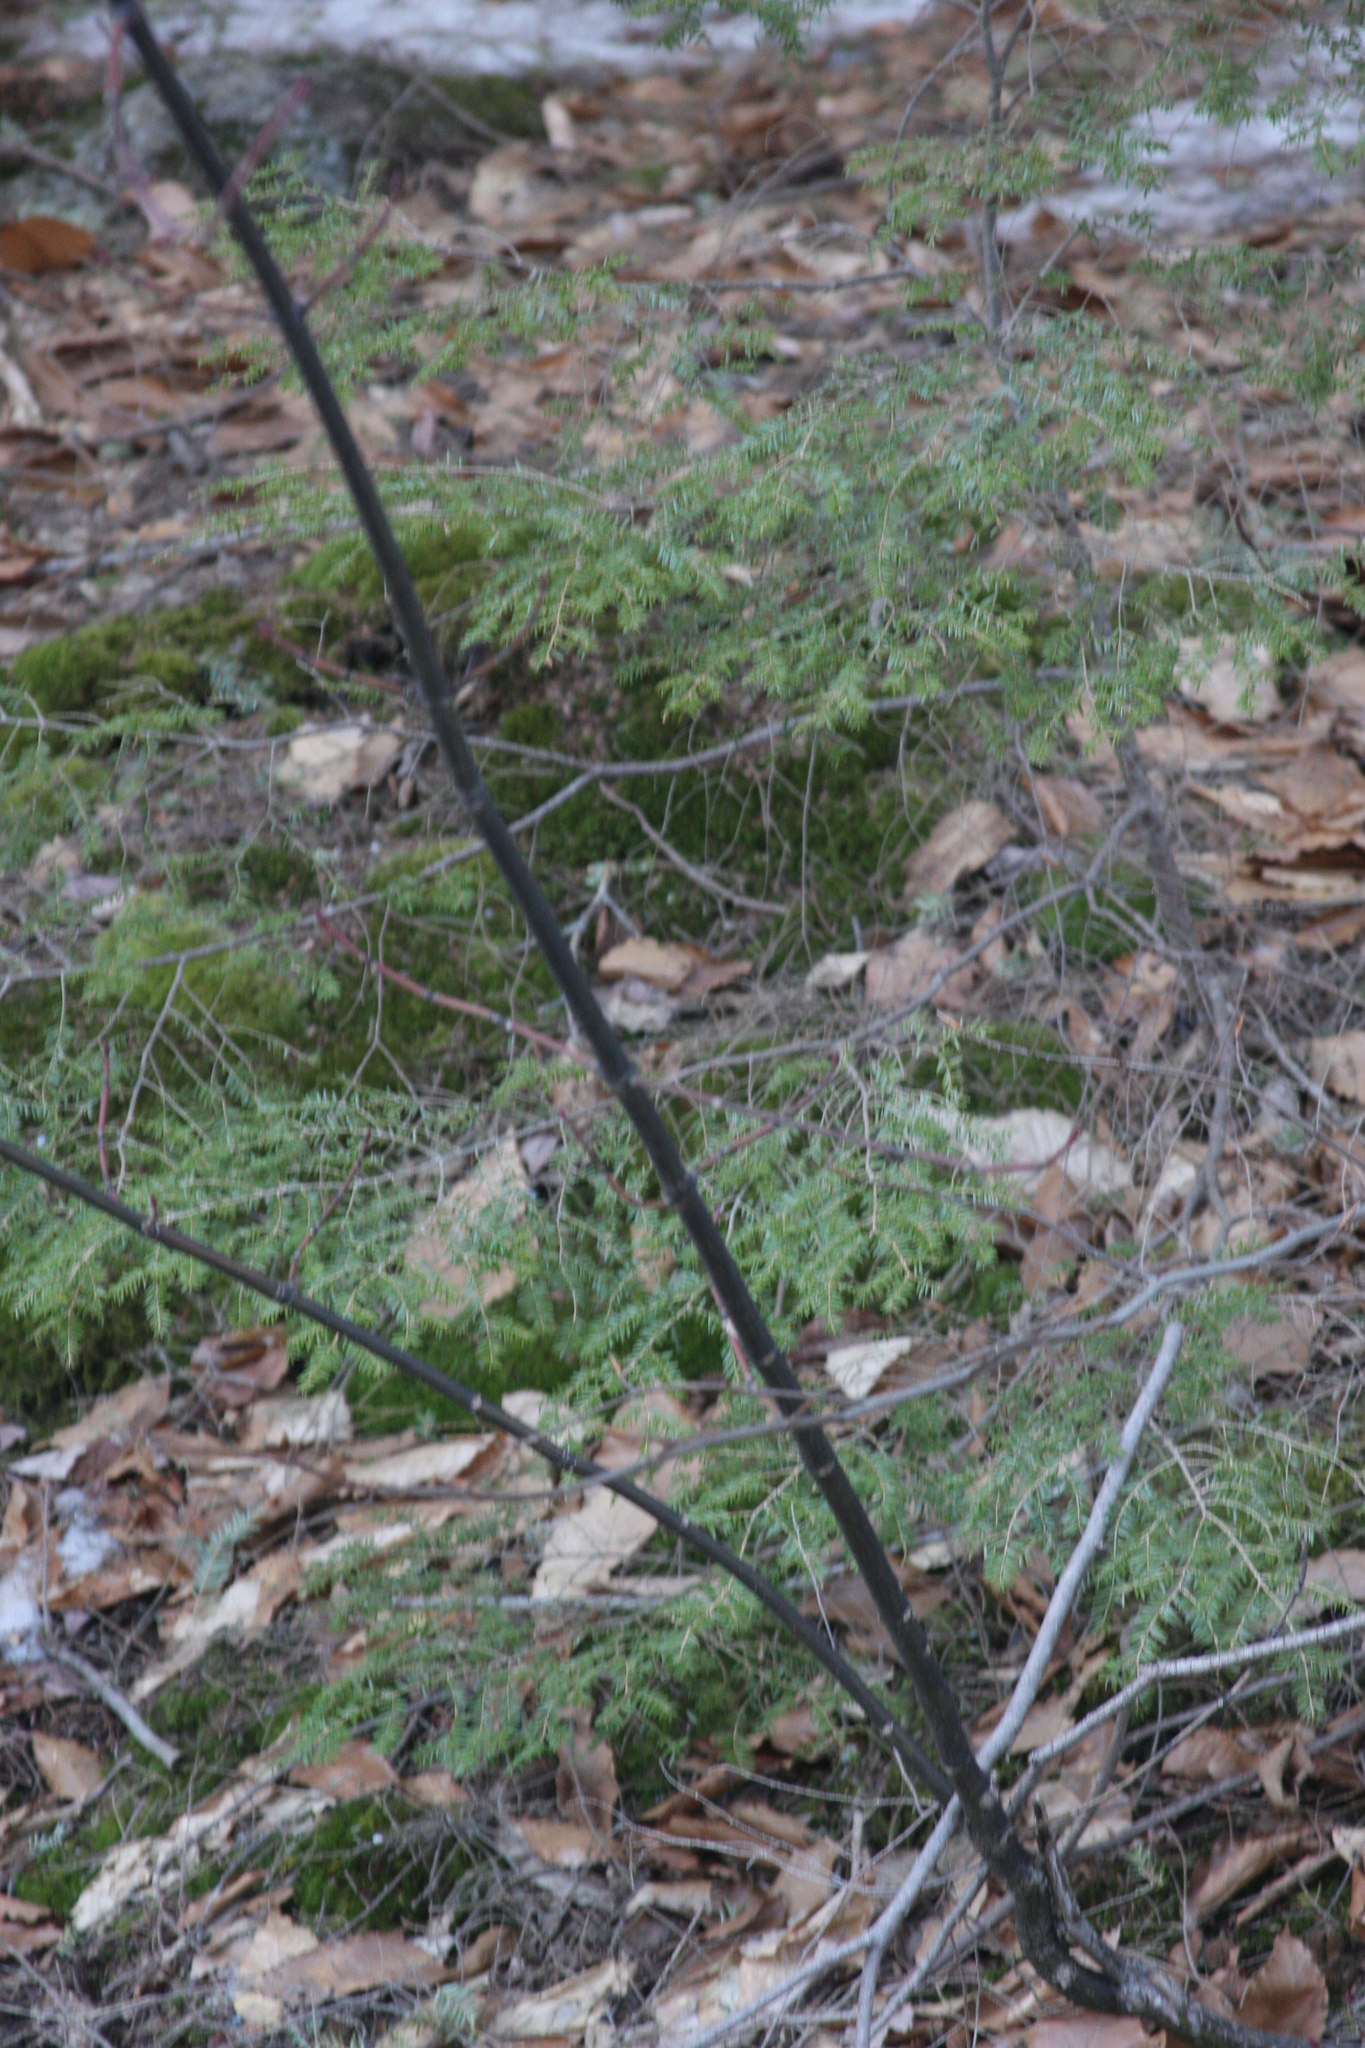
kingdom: Plantae
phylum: Tracheophyta
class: Magnoliopsida
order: Sapindales
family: Sapindaceae
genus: Acer
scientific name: Acer pensylvanicum
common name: Moosewood
